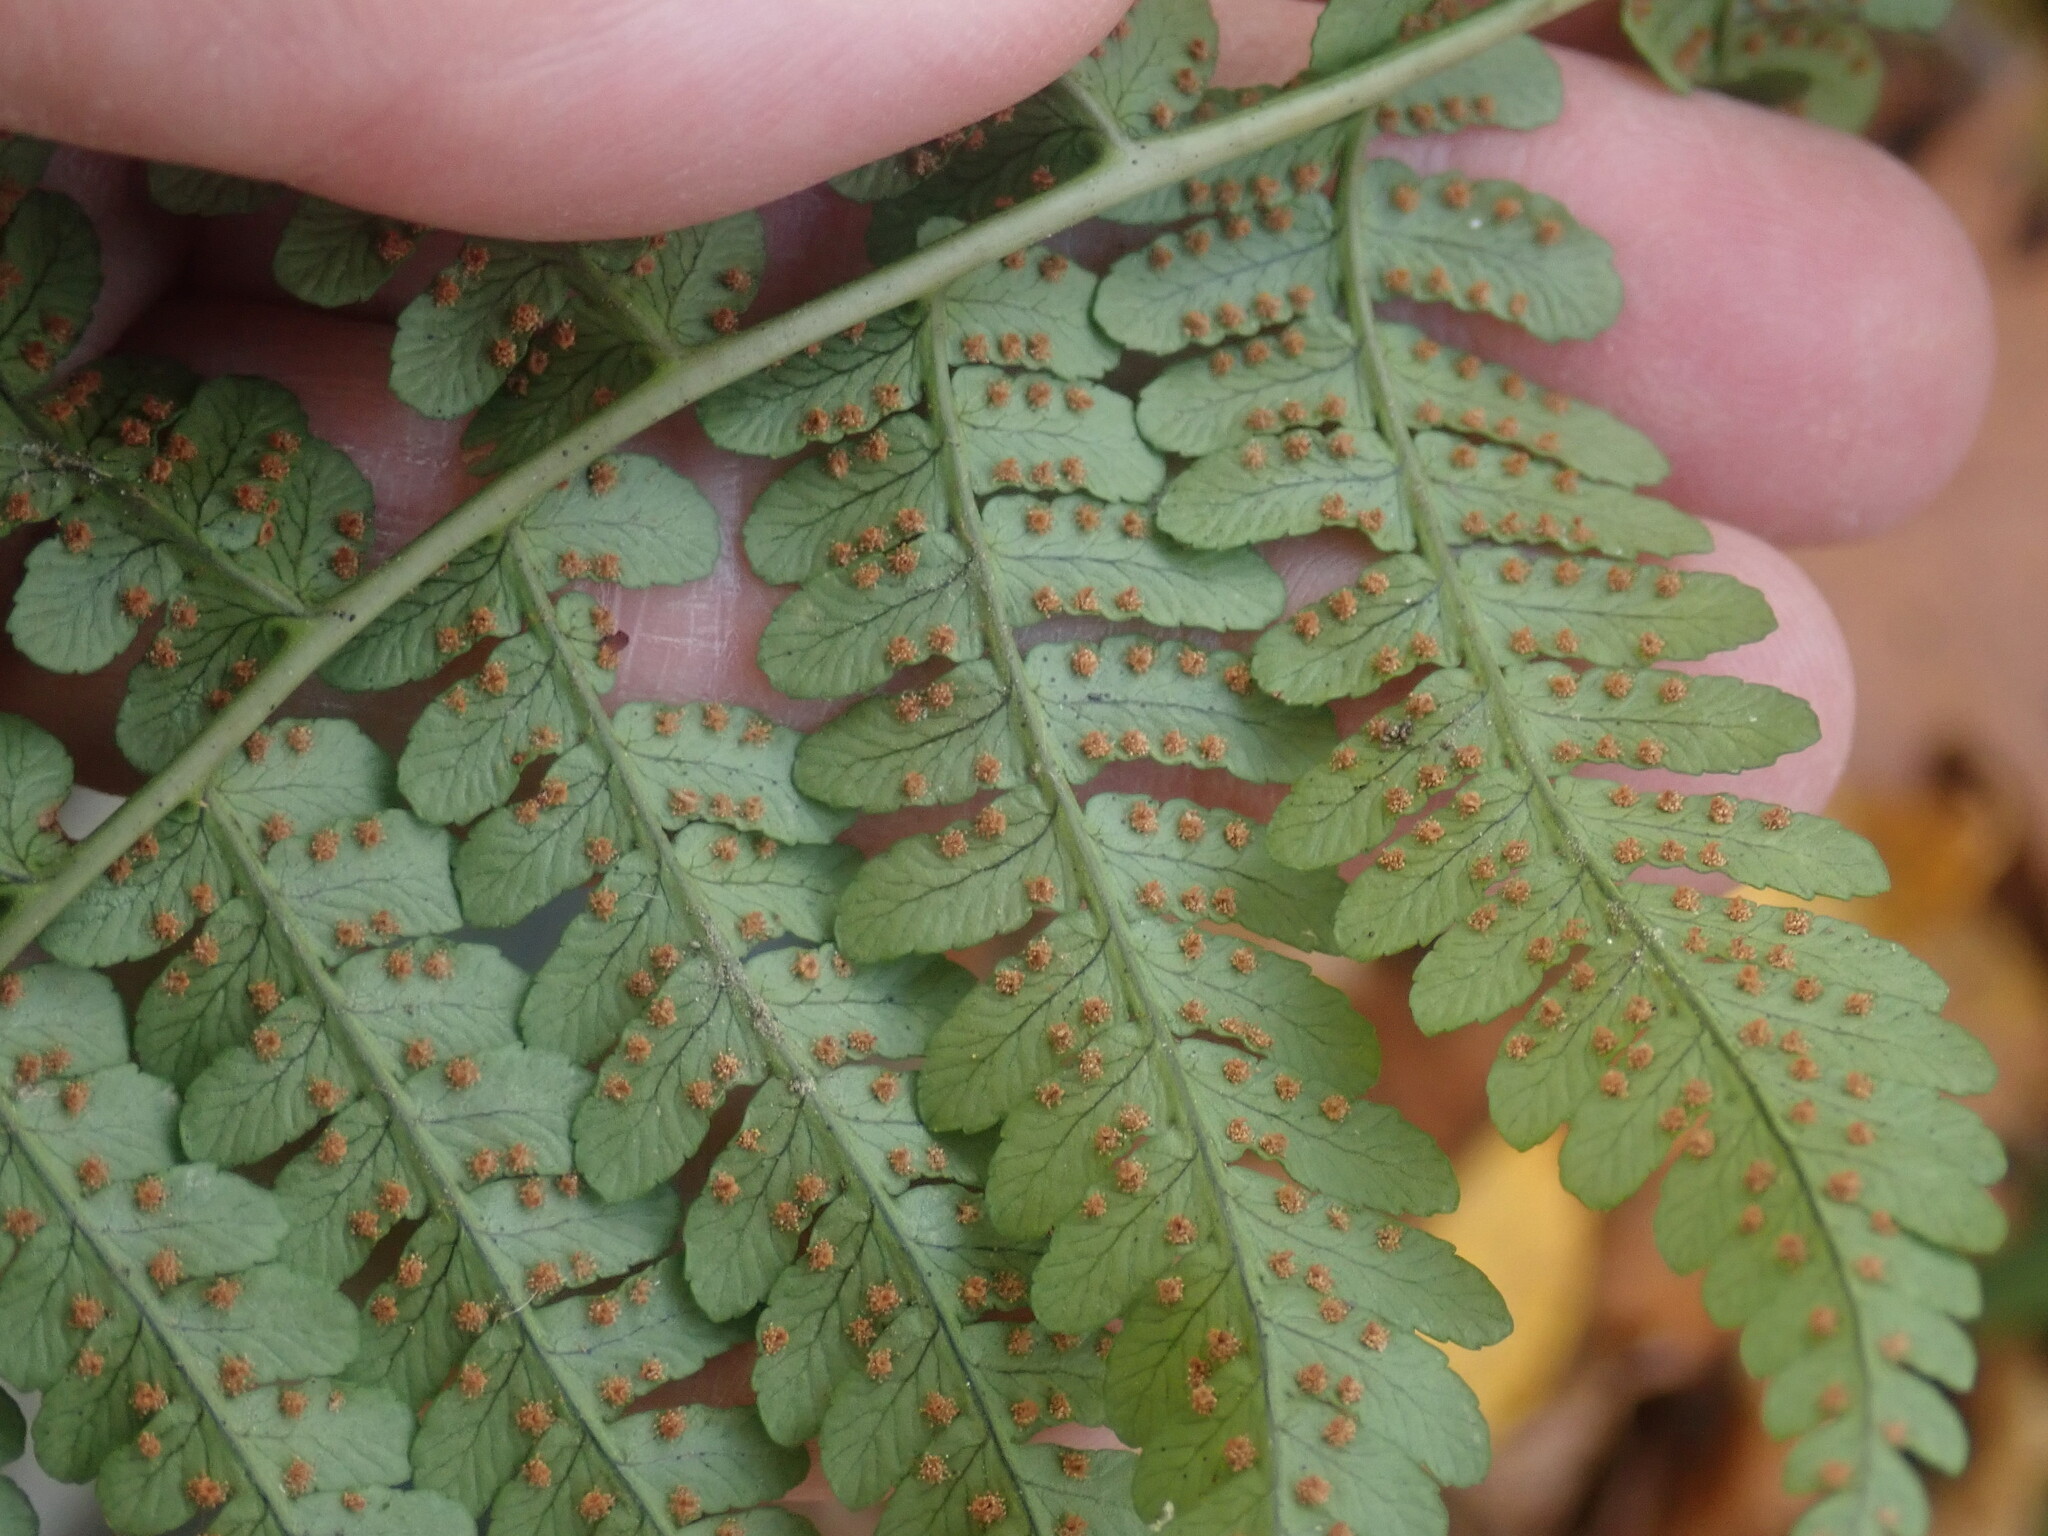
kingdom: Plantae
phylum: Tracheophyta
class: Polypodiopsida
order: Polypodiales
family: Dryopteridaceae
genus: Dryopteris
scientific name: Dryopteris marginalis
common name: Marginal wood fern
